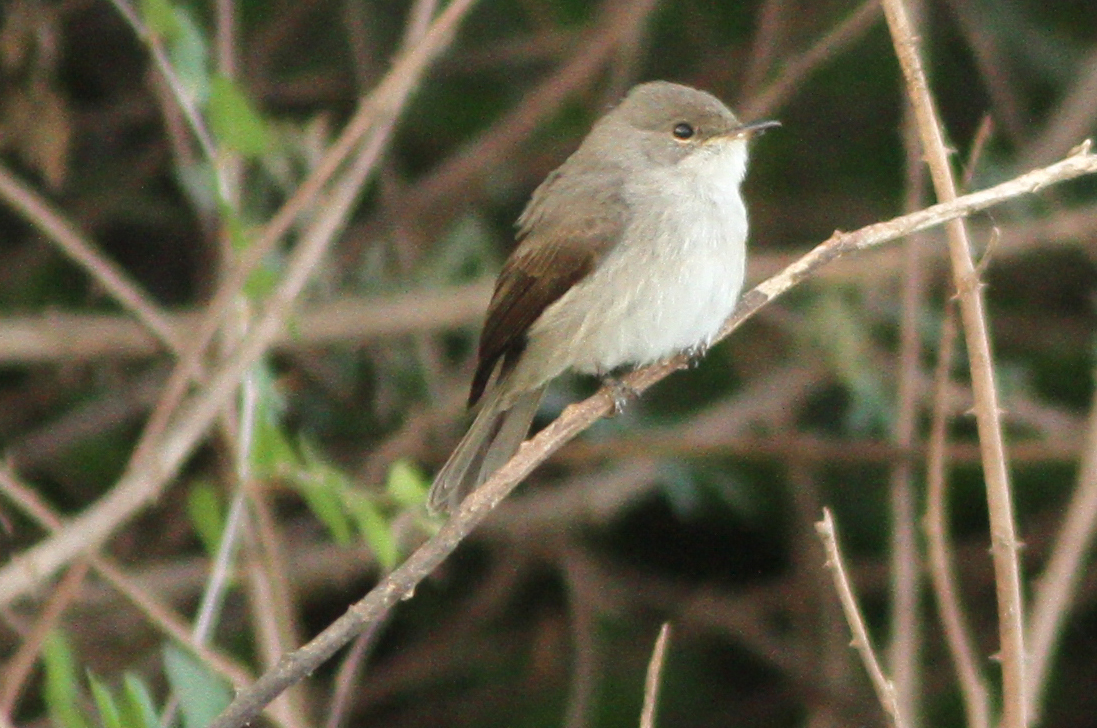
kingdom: Animalia
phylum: Chordata
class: Aves
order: Passeriformes
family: Muscicapidae
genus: Muscicapa
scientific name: Muscicapa aquatica
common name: Swamp flycatcher
